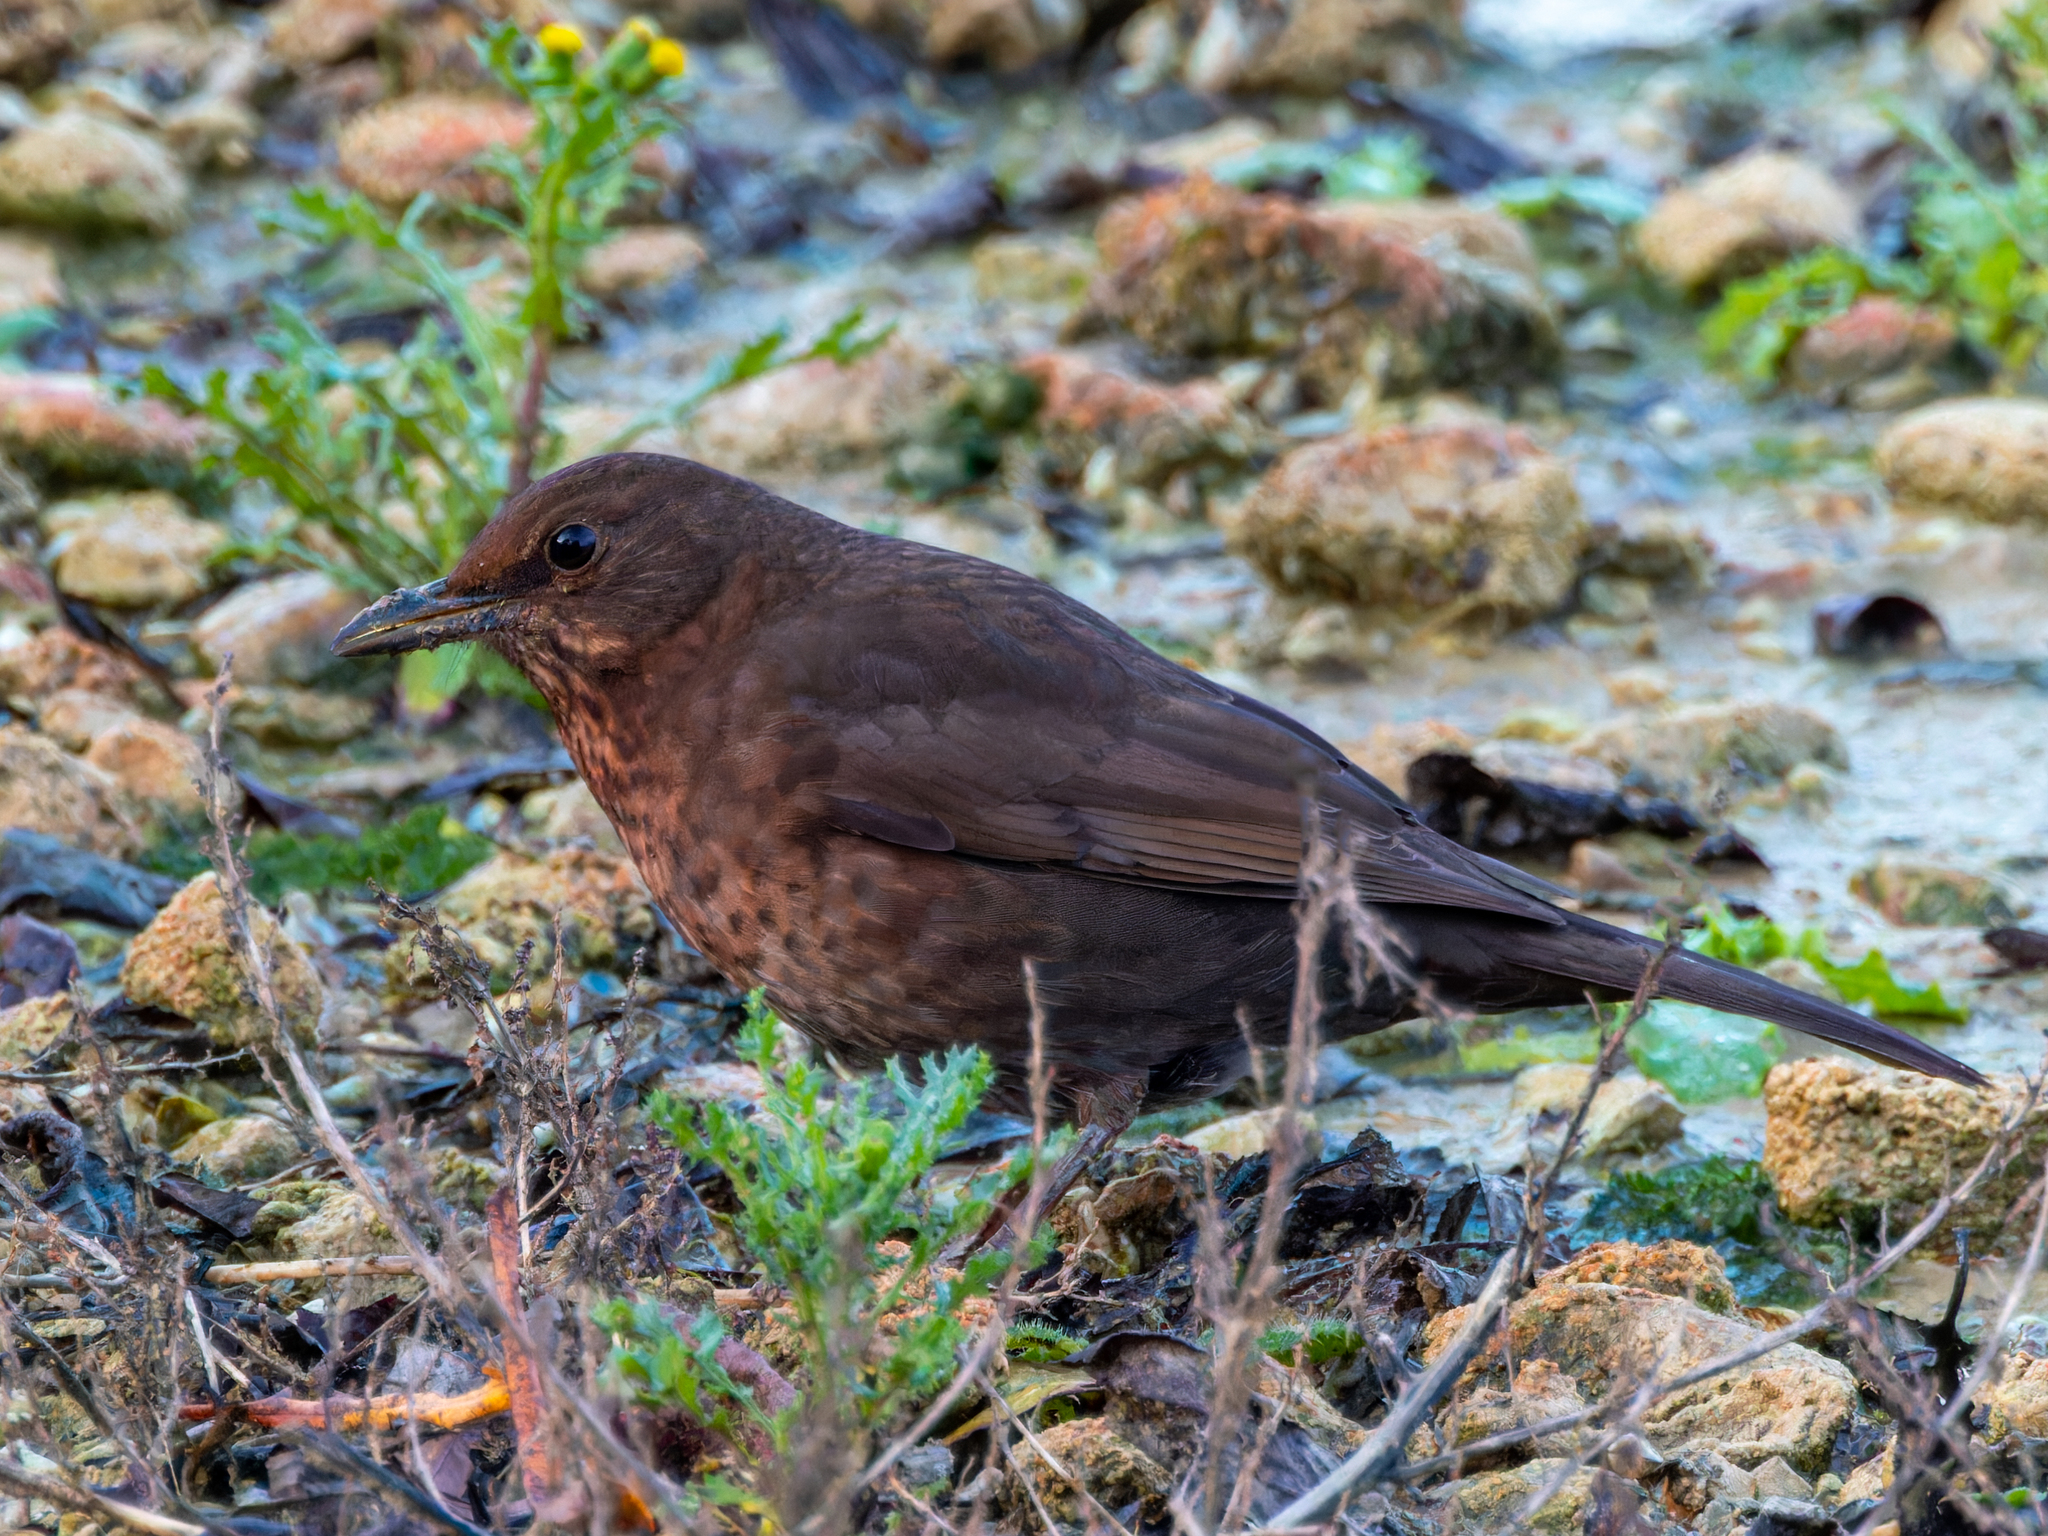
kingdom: Animalia
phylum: Chordata
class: Aves
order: Passeriformes
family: Turdidae
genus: Turdus
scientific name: Turdus merula
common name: Common blackbird
